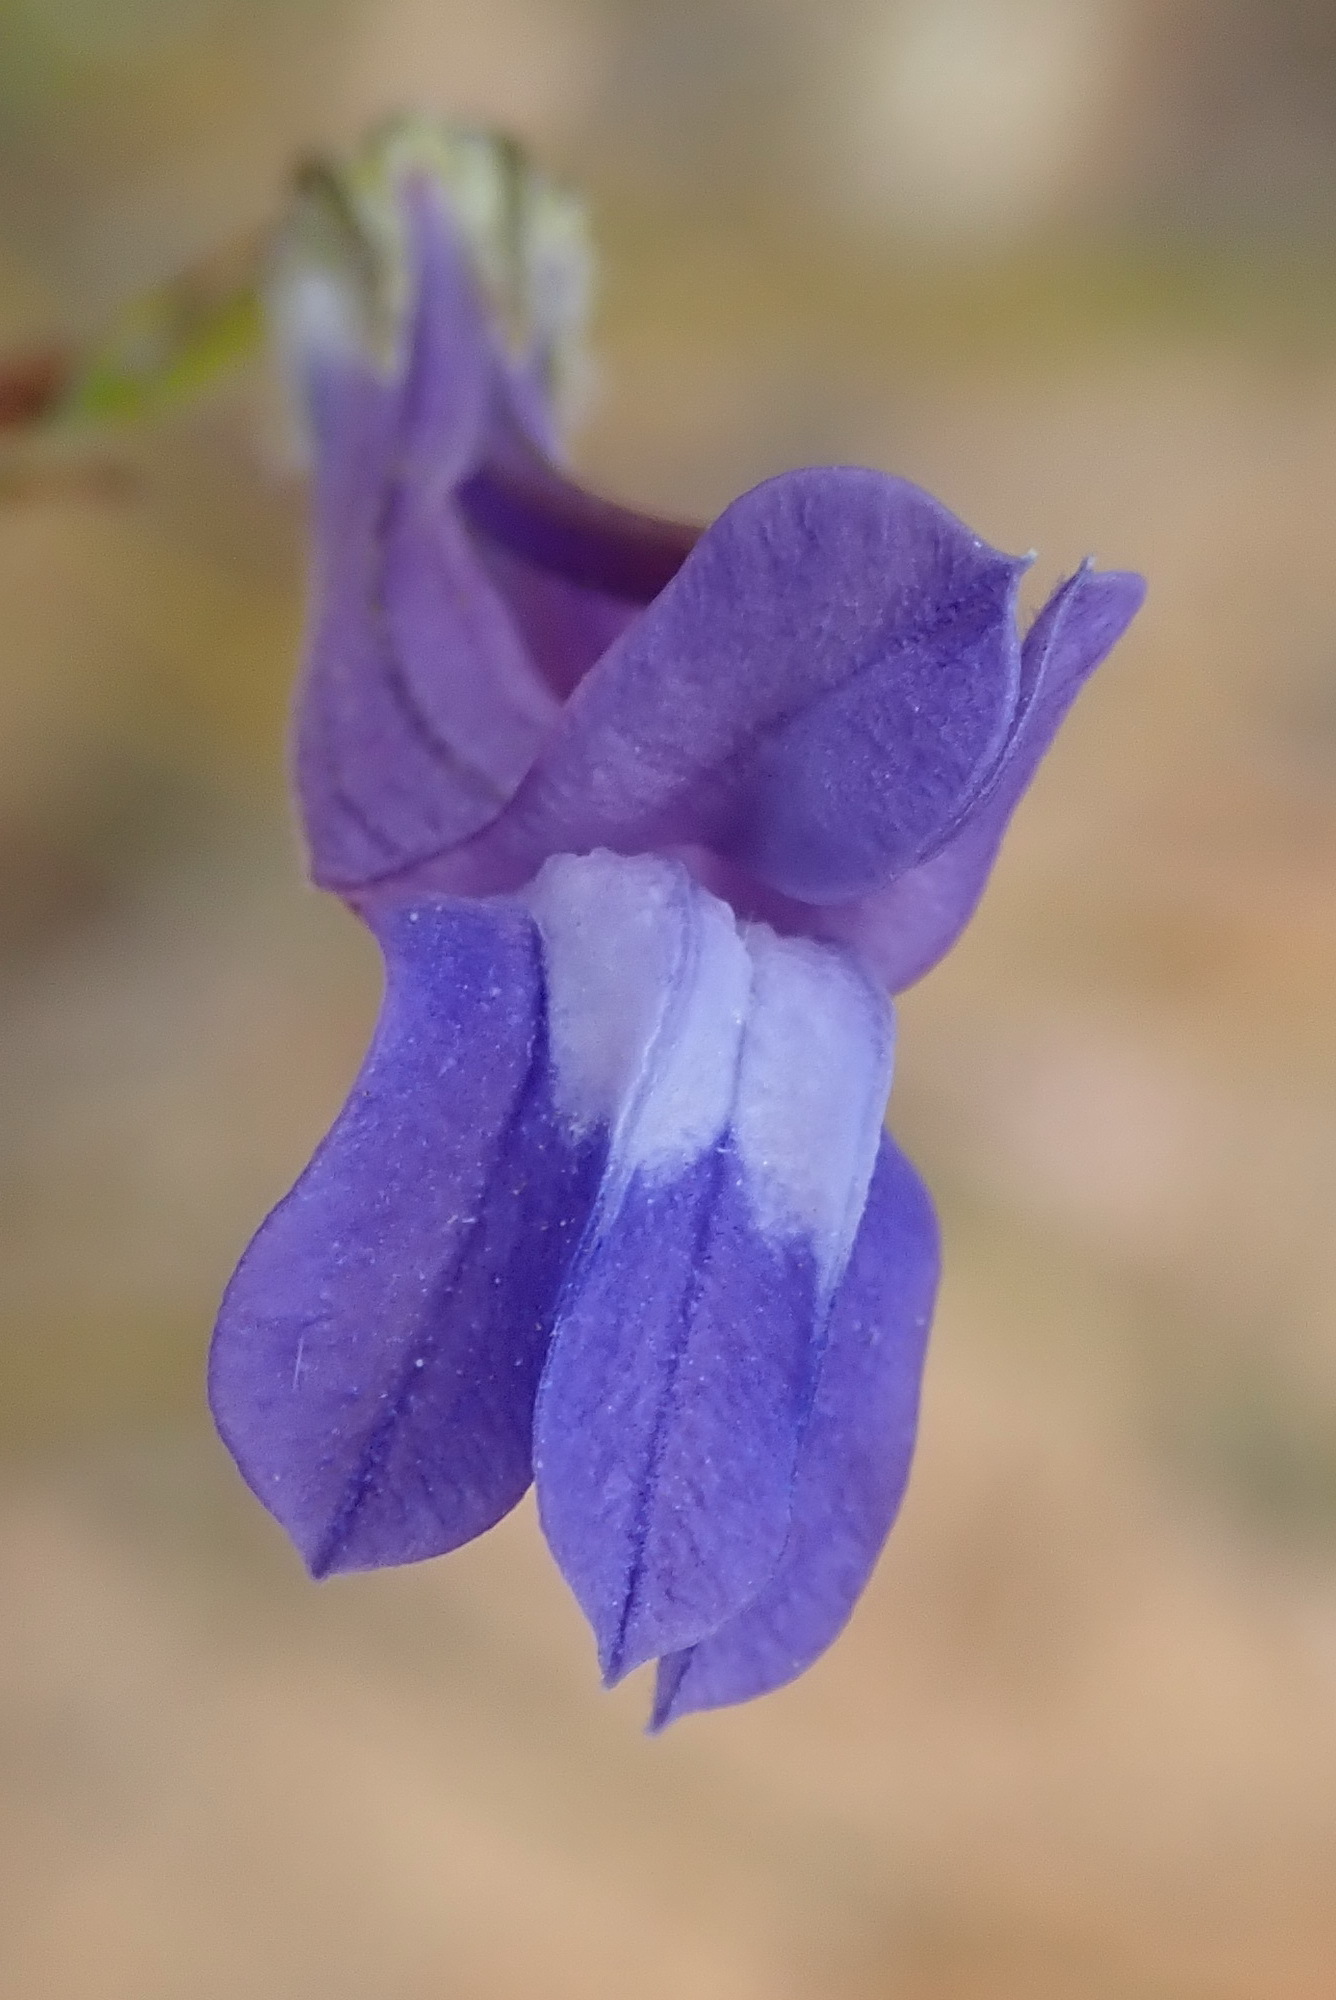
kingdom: Plantae
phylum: Tracheophyta
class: Magnoliopsida
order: Asterales
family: Campanulaceae
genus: Lobelia
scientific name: Lobelia linearis
